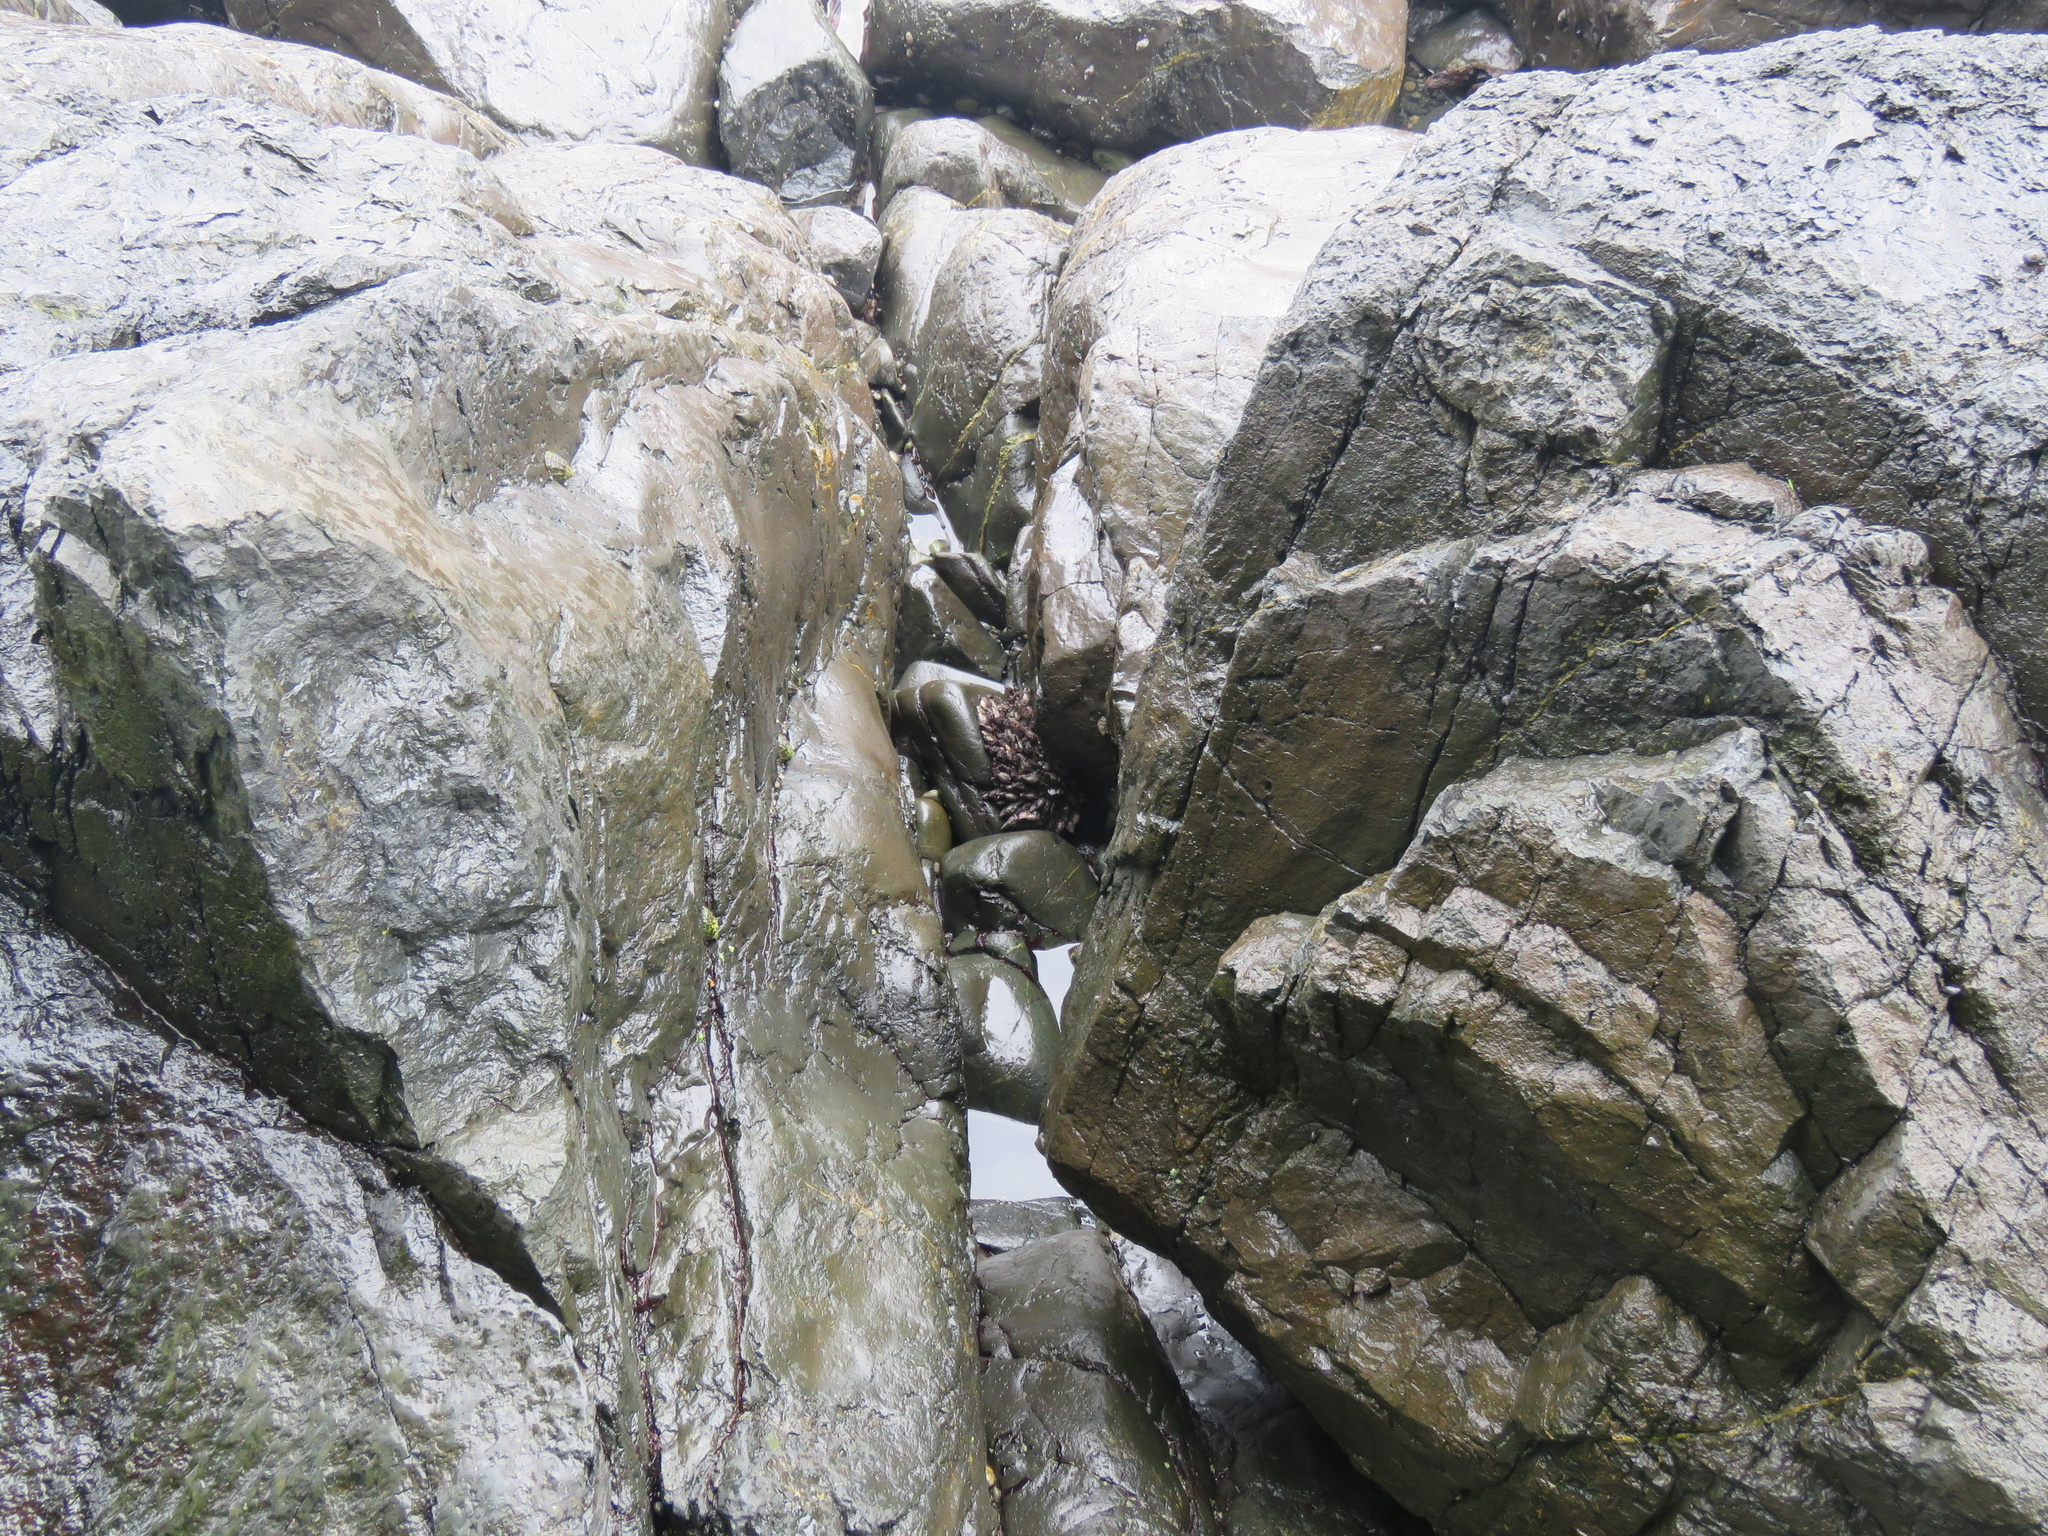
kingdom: Animalia
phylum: Arthropoda
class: Maxillopoda
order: Pedunculata
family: Pollicipedidae
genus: Pollicipes
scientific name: Pollicipes polymerus
